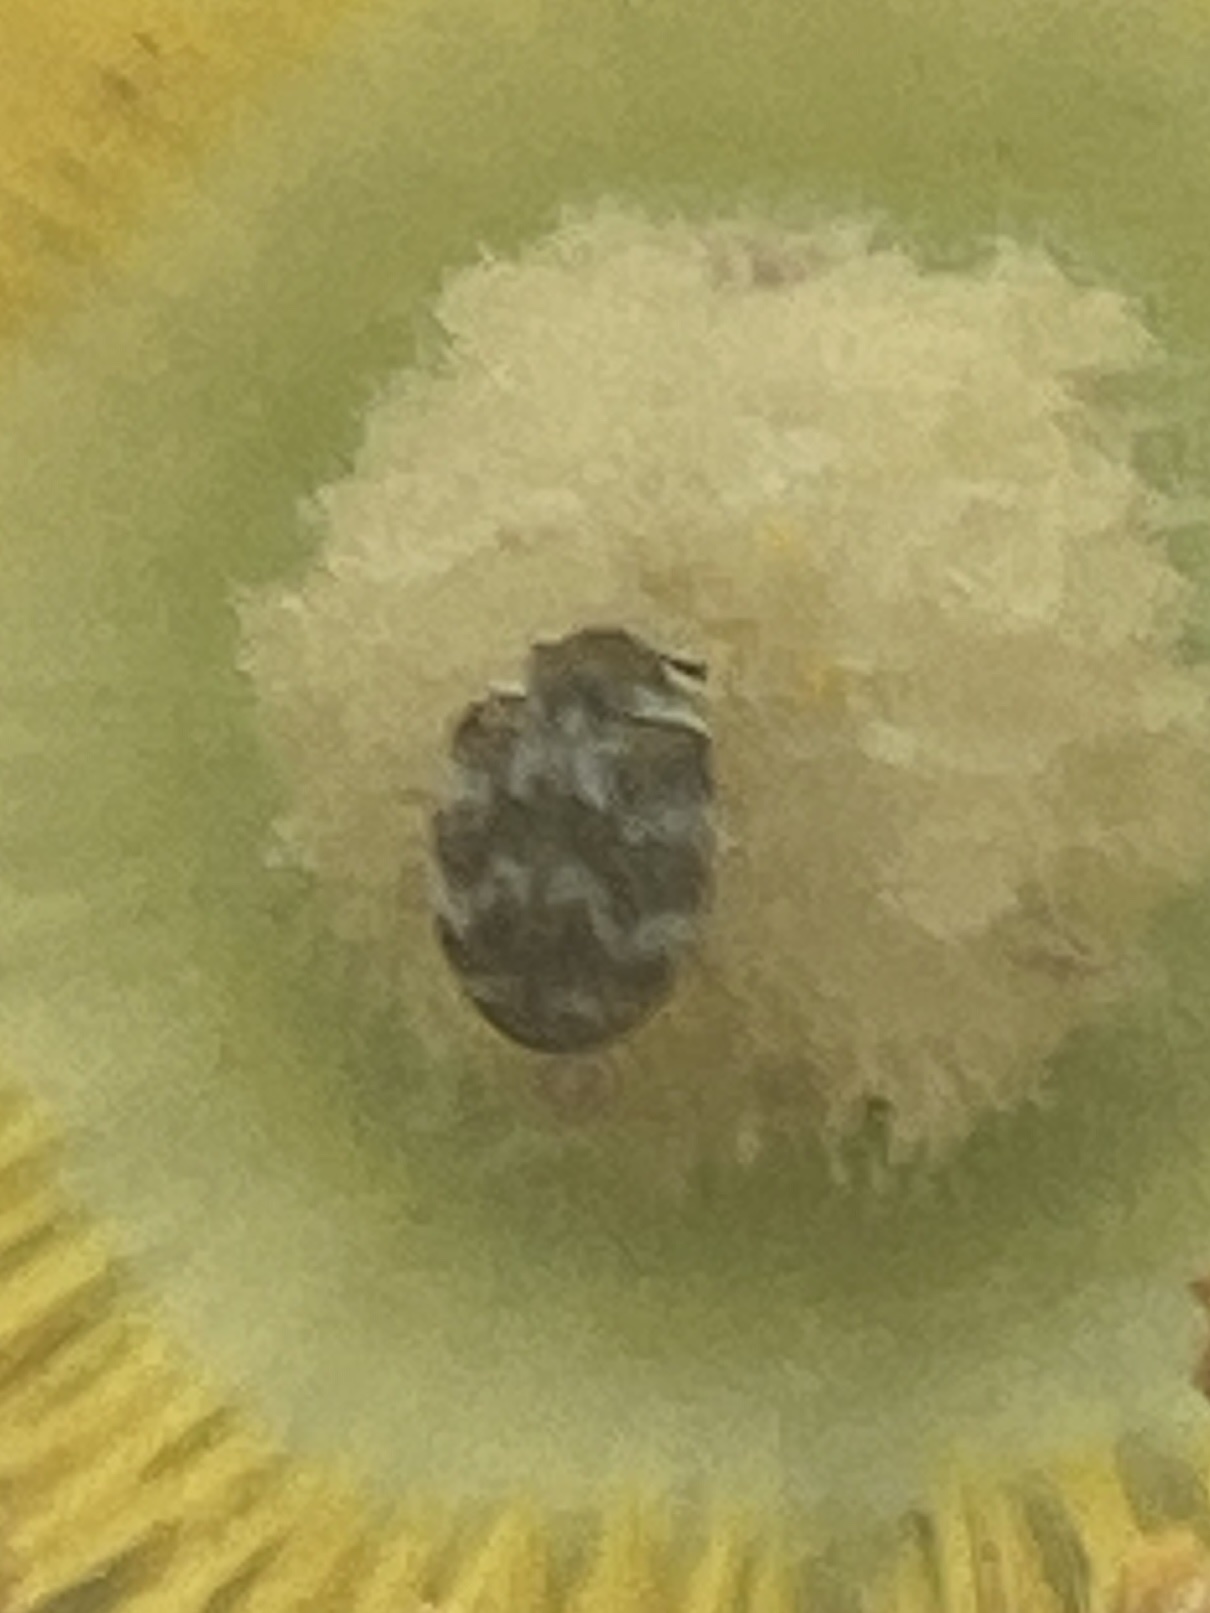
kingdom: Animalia
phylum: Arthropoda
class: Insecta
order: Coleoptera
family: Dermestidae
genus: Anthrenus
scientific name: Anthrenus verbasci
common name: Varied carpet beetle
